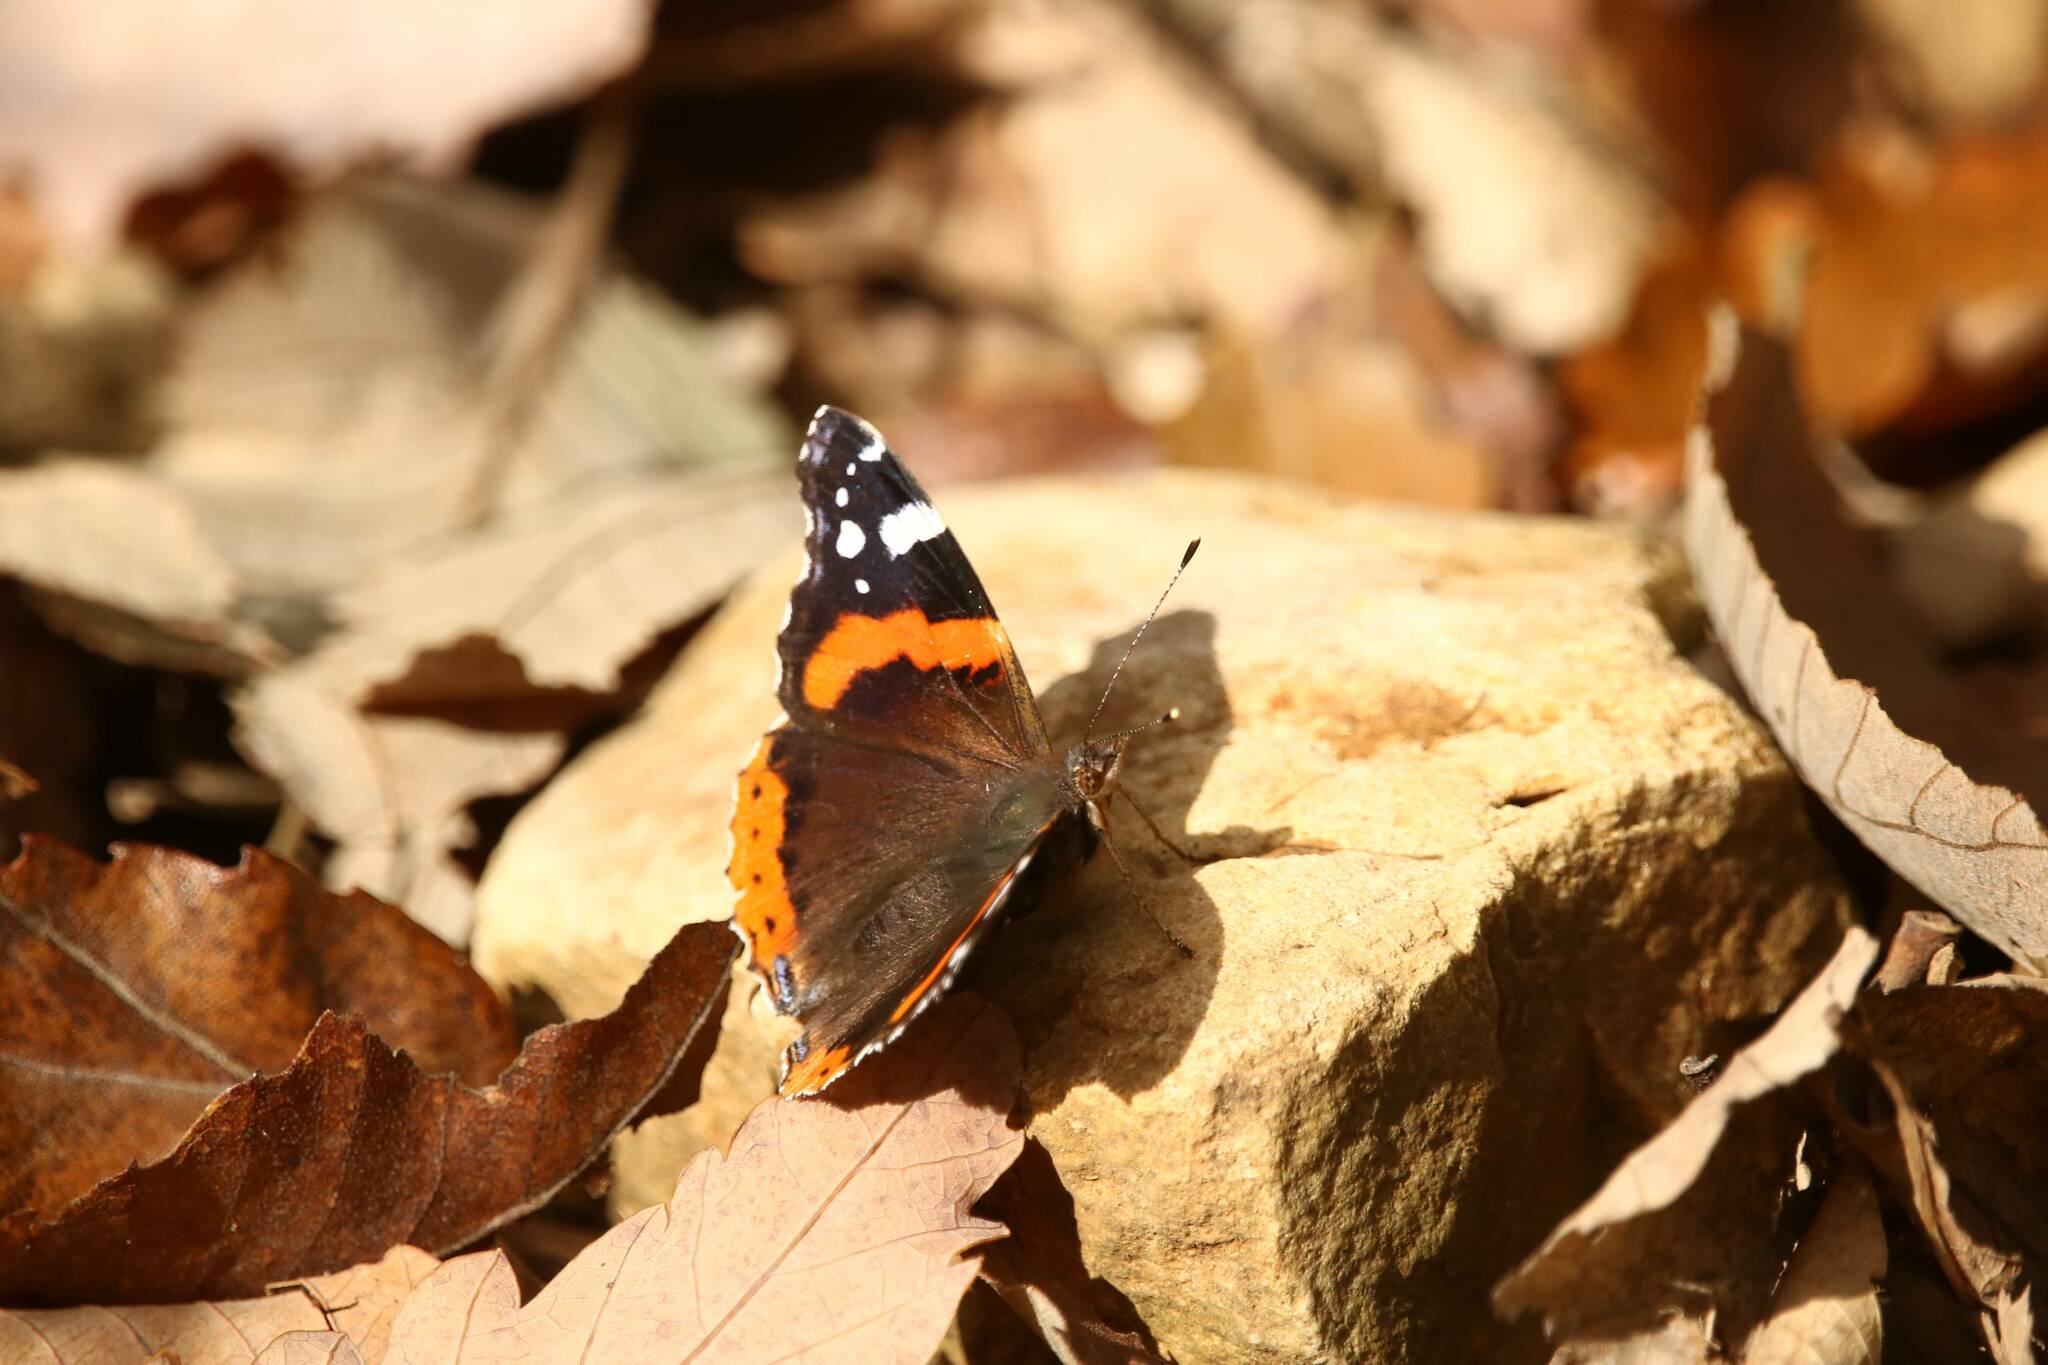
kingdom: Animalia
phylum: Arthropoda
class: Insecta
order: Lepidoptera
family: Nymphalidae
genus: Vanessa
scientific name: Vanessa atalanta
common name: Red admiral
